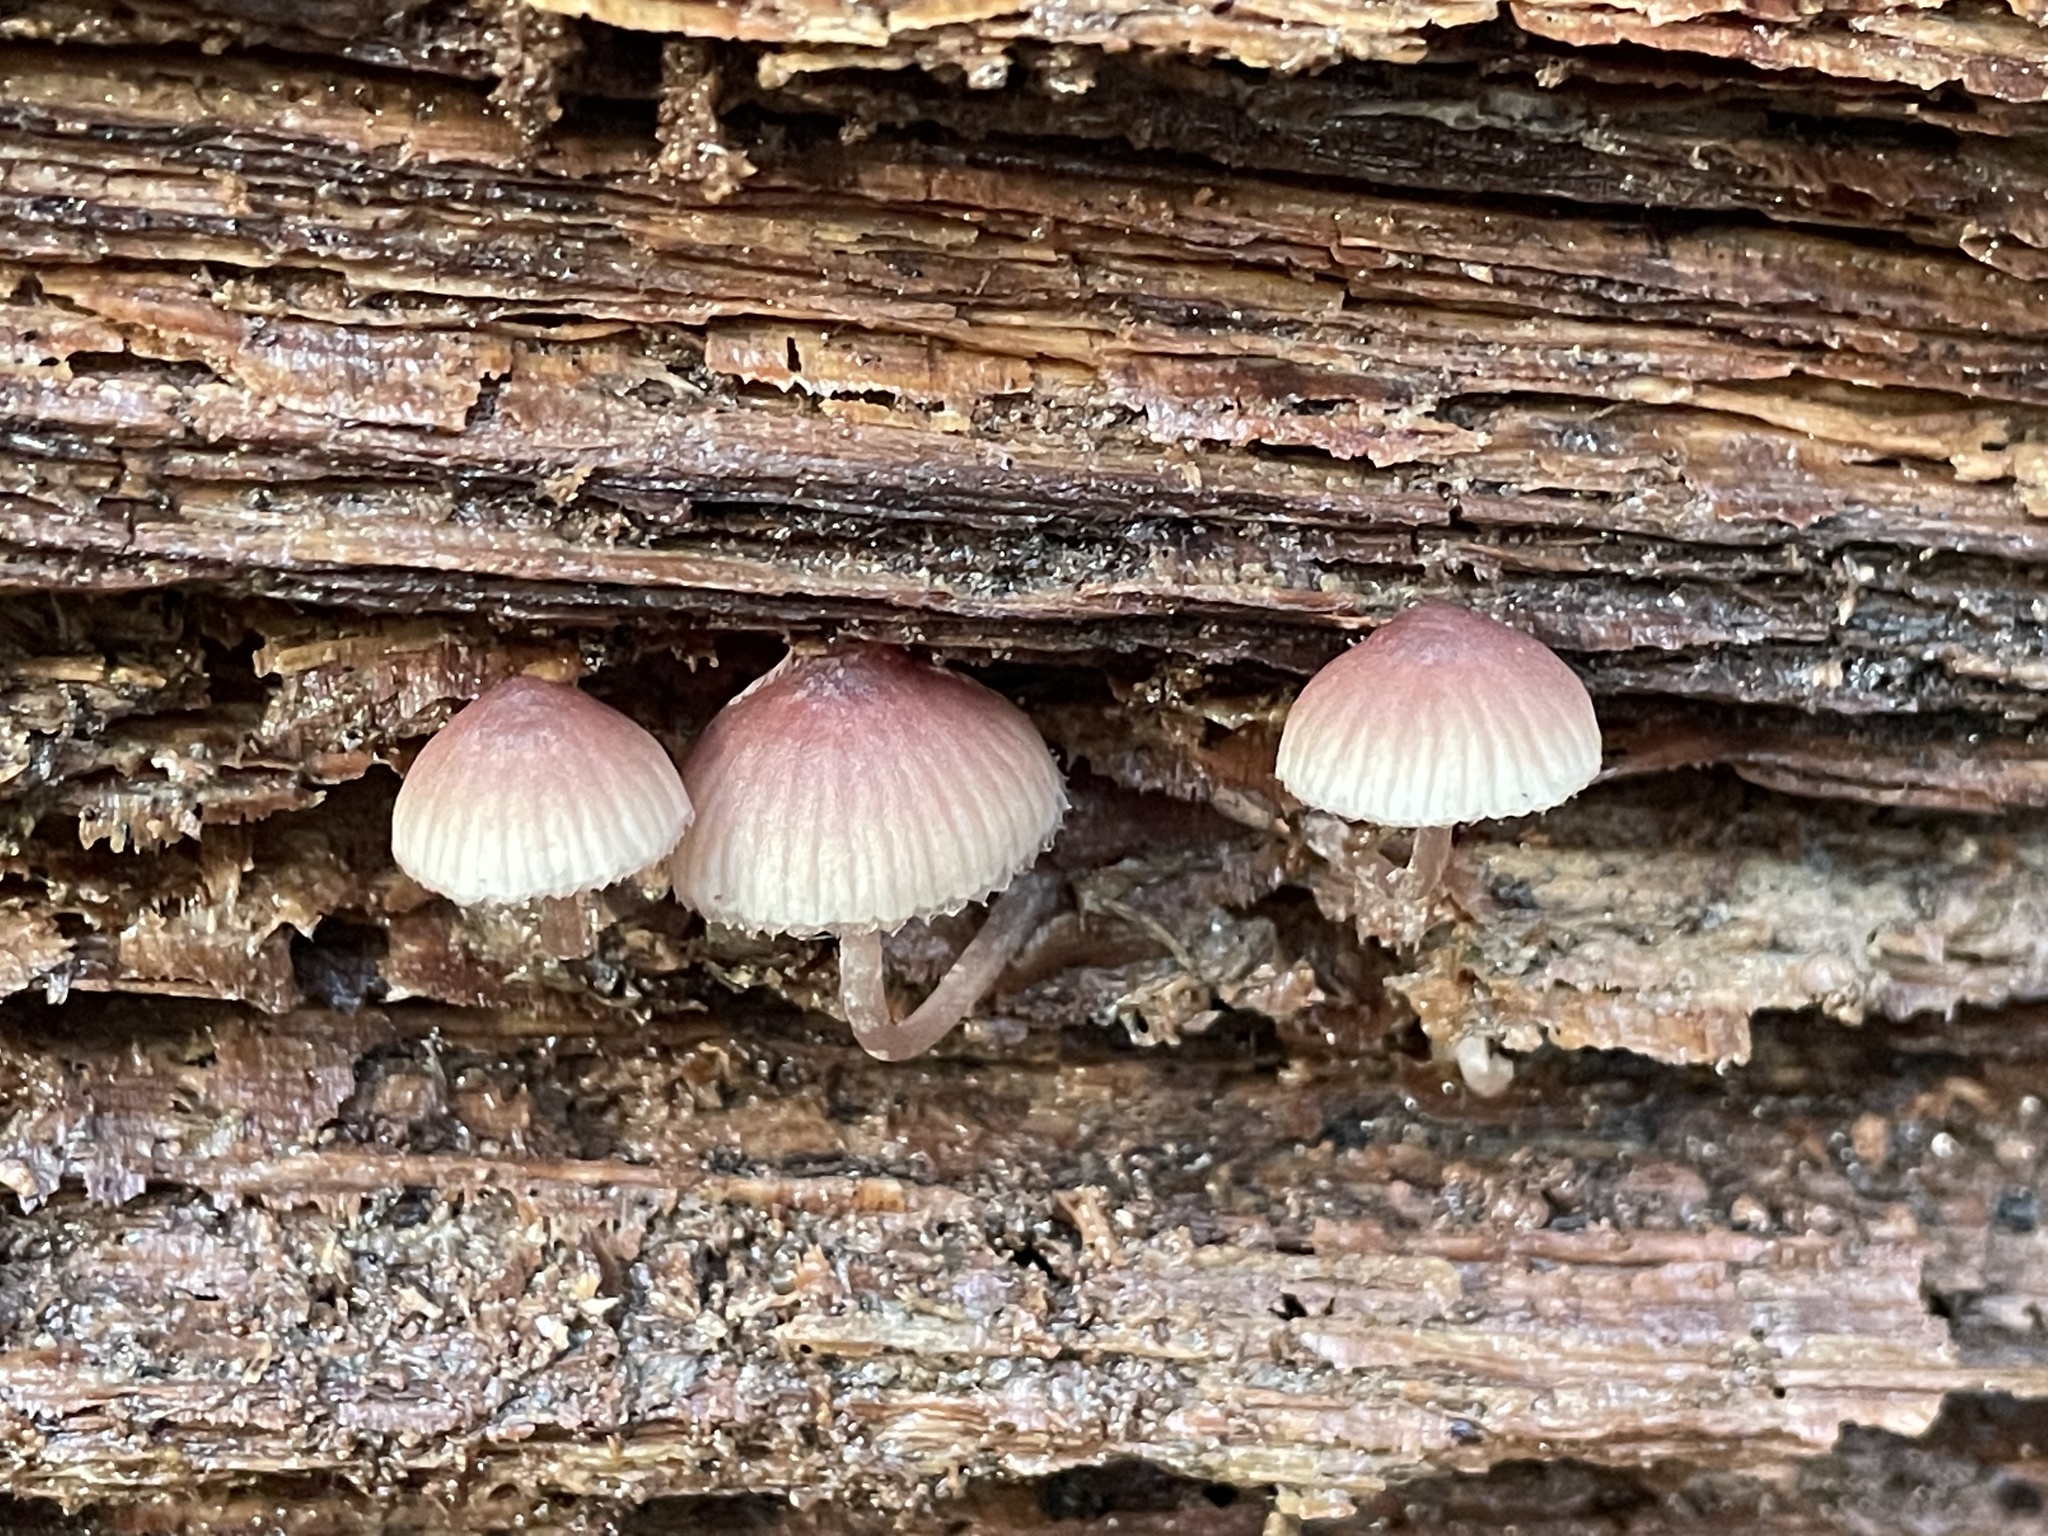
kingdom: Fungi
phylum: Basidiomycota
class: Agaricomycetes
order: Agaricales
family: Mycenaceae
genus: Mycena
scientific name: Mycena haematopus
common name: Burgundydrop bonnet
